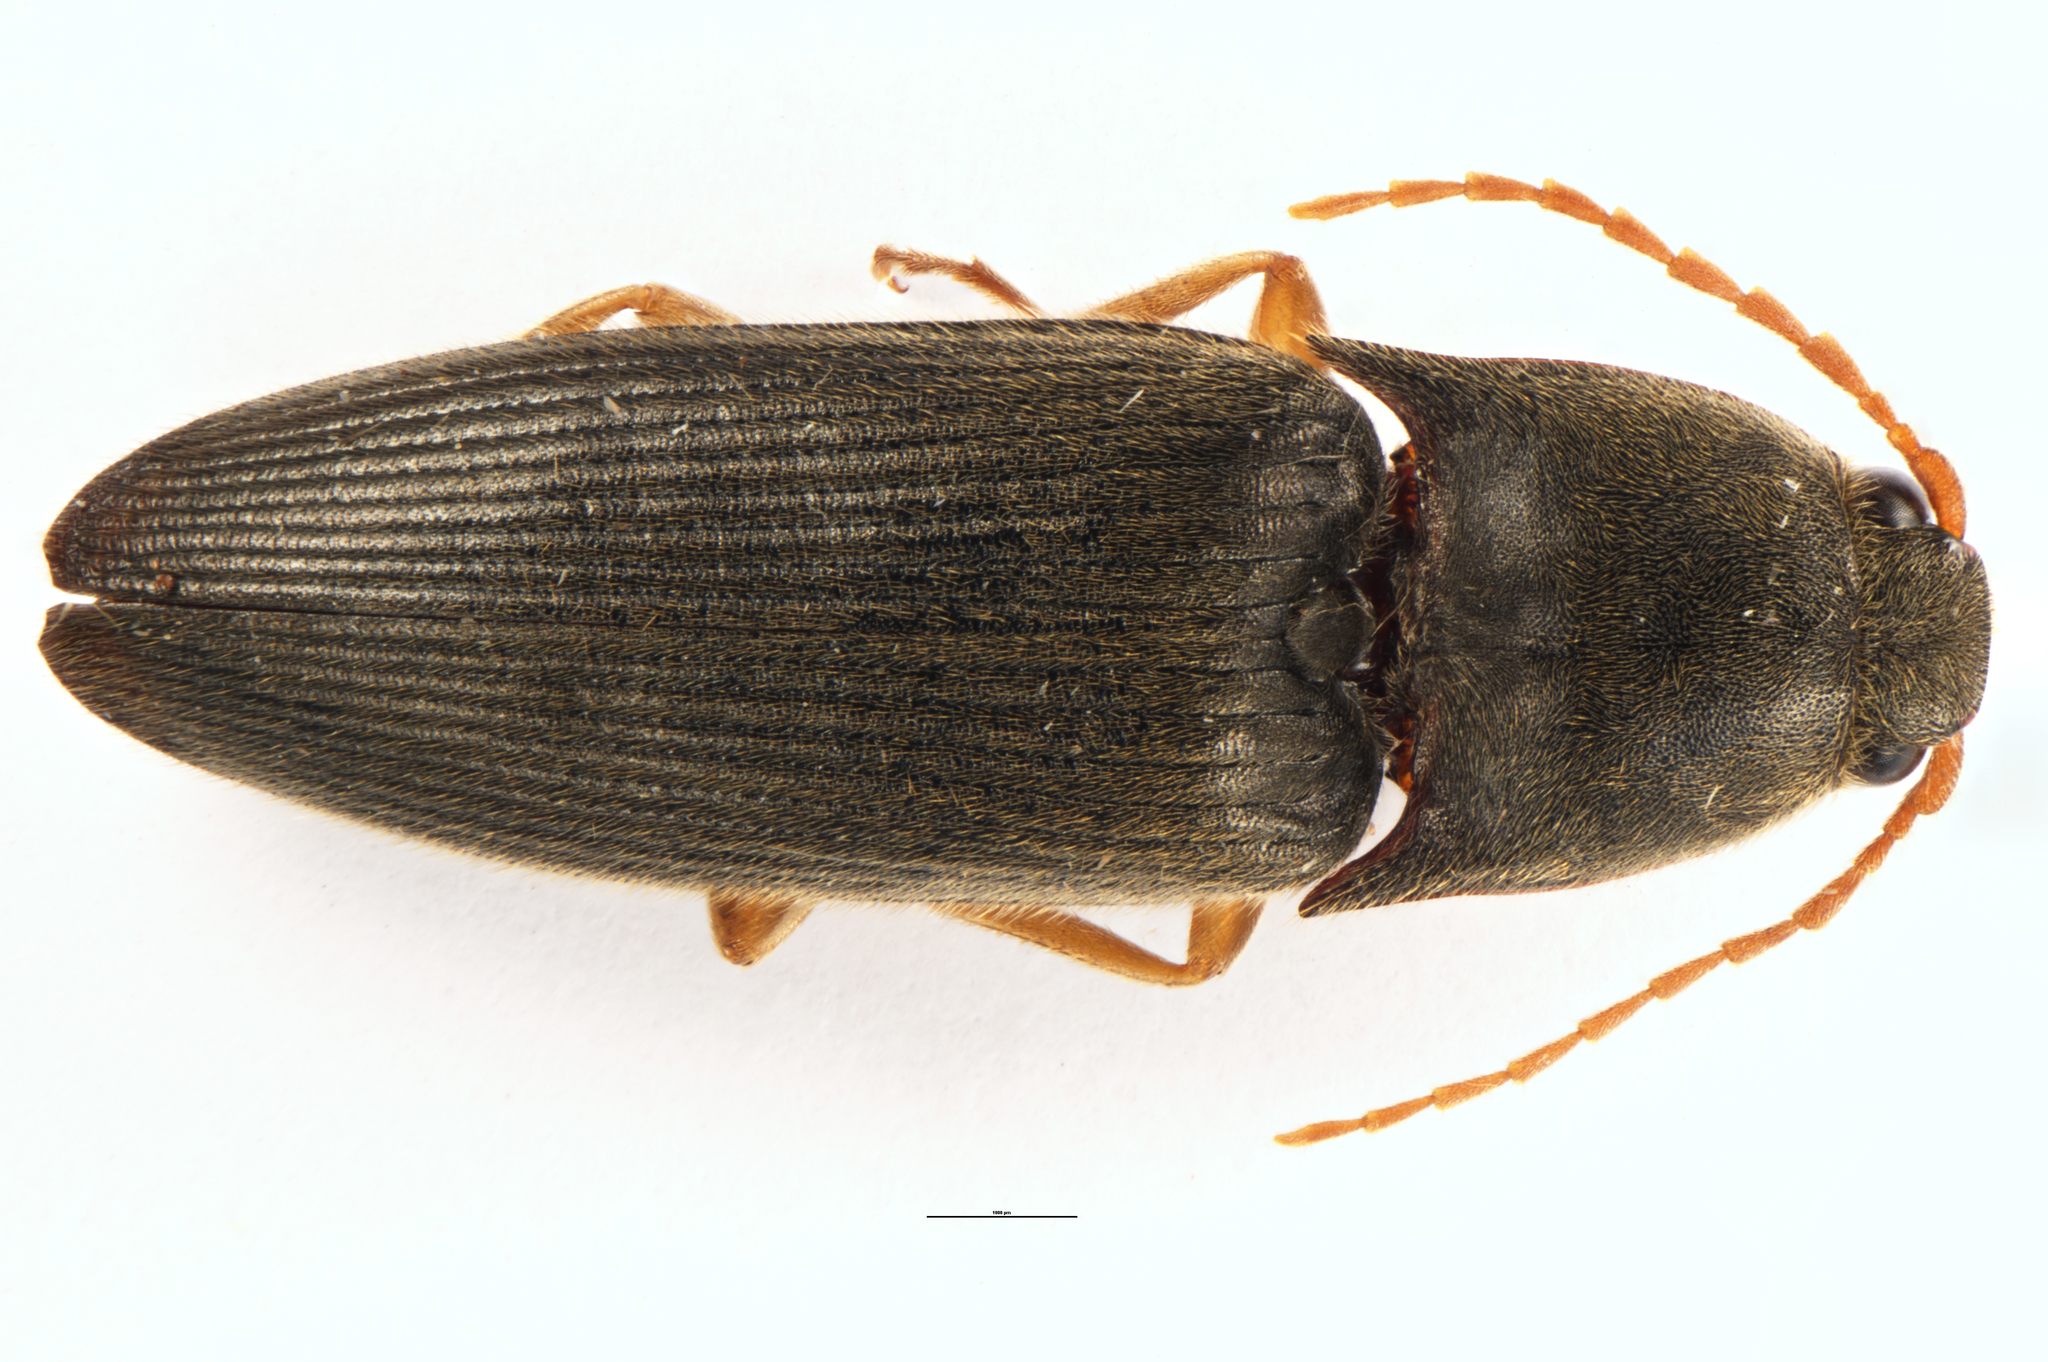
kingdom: Animalia
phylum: Arthropoda
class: Insecta
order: Coleoptera
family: Elateridae
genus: Conoderus
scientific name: Conoderus exsul
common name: Click beetle
